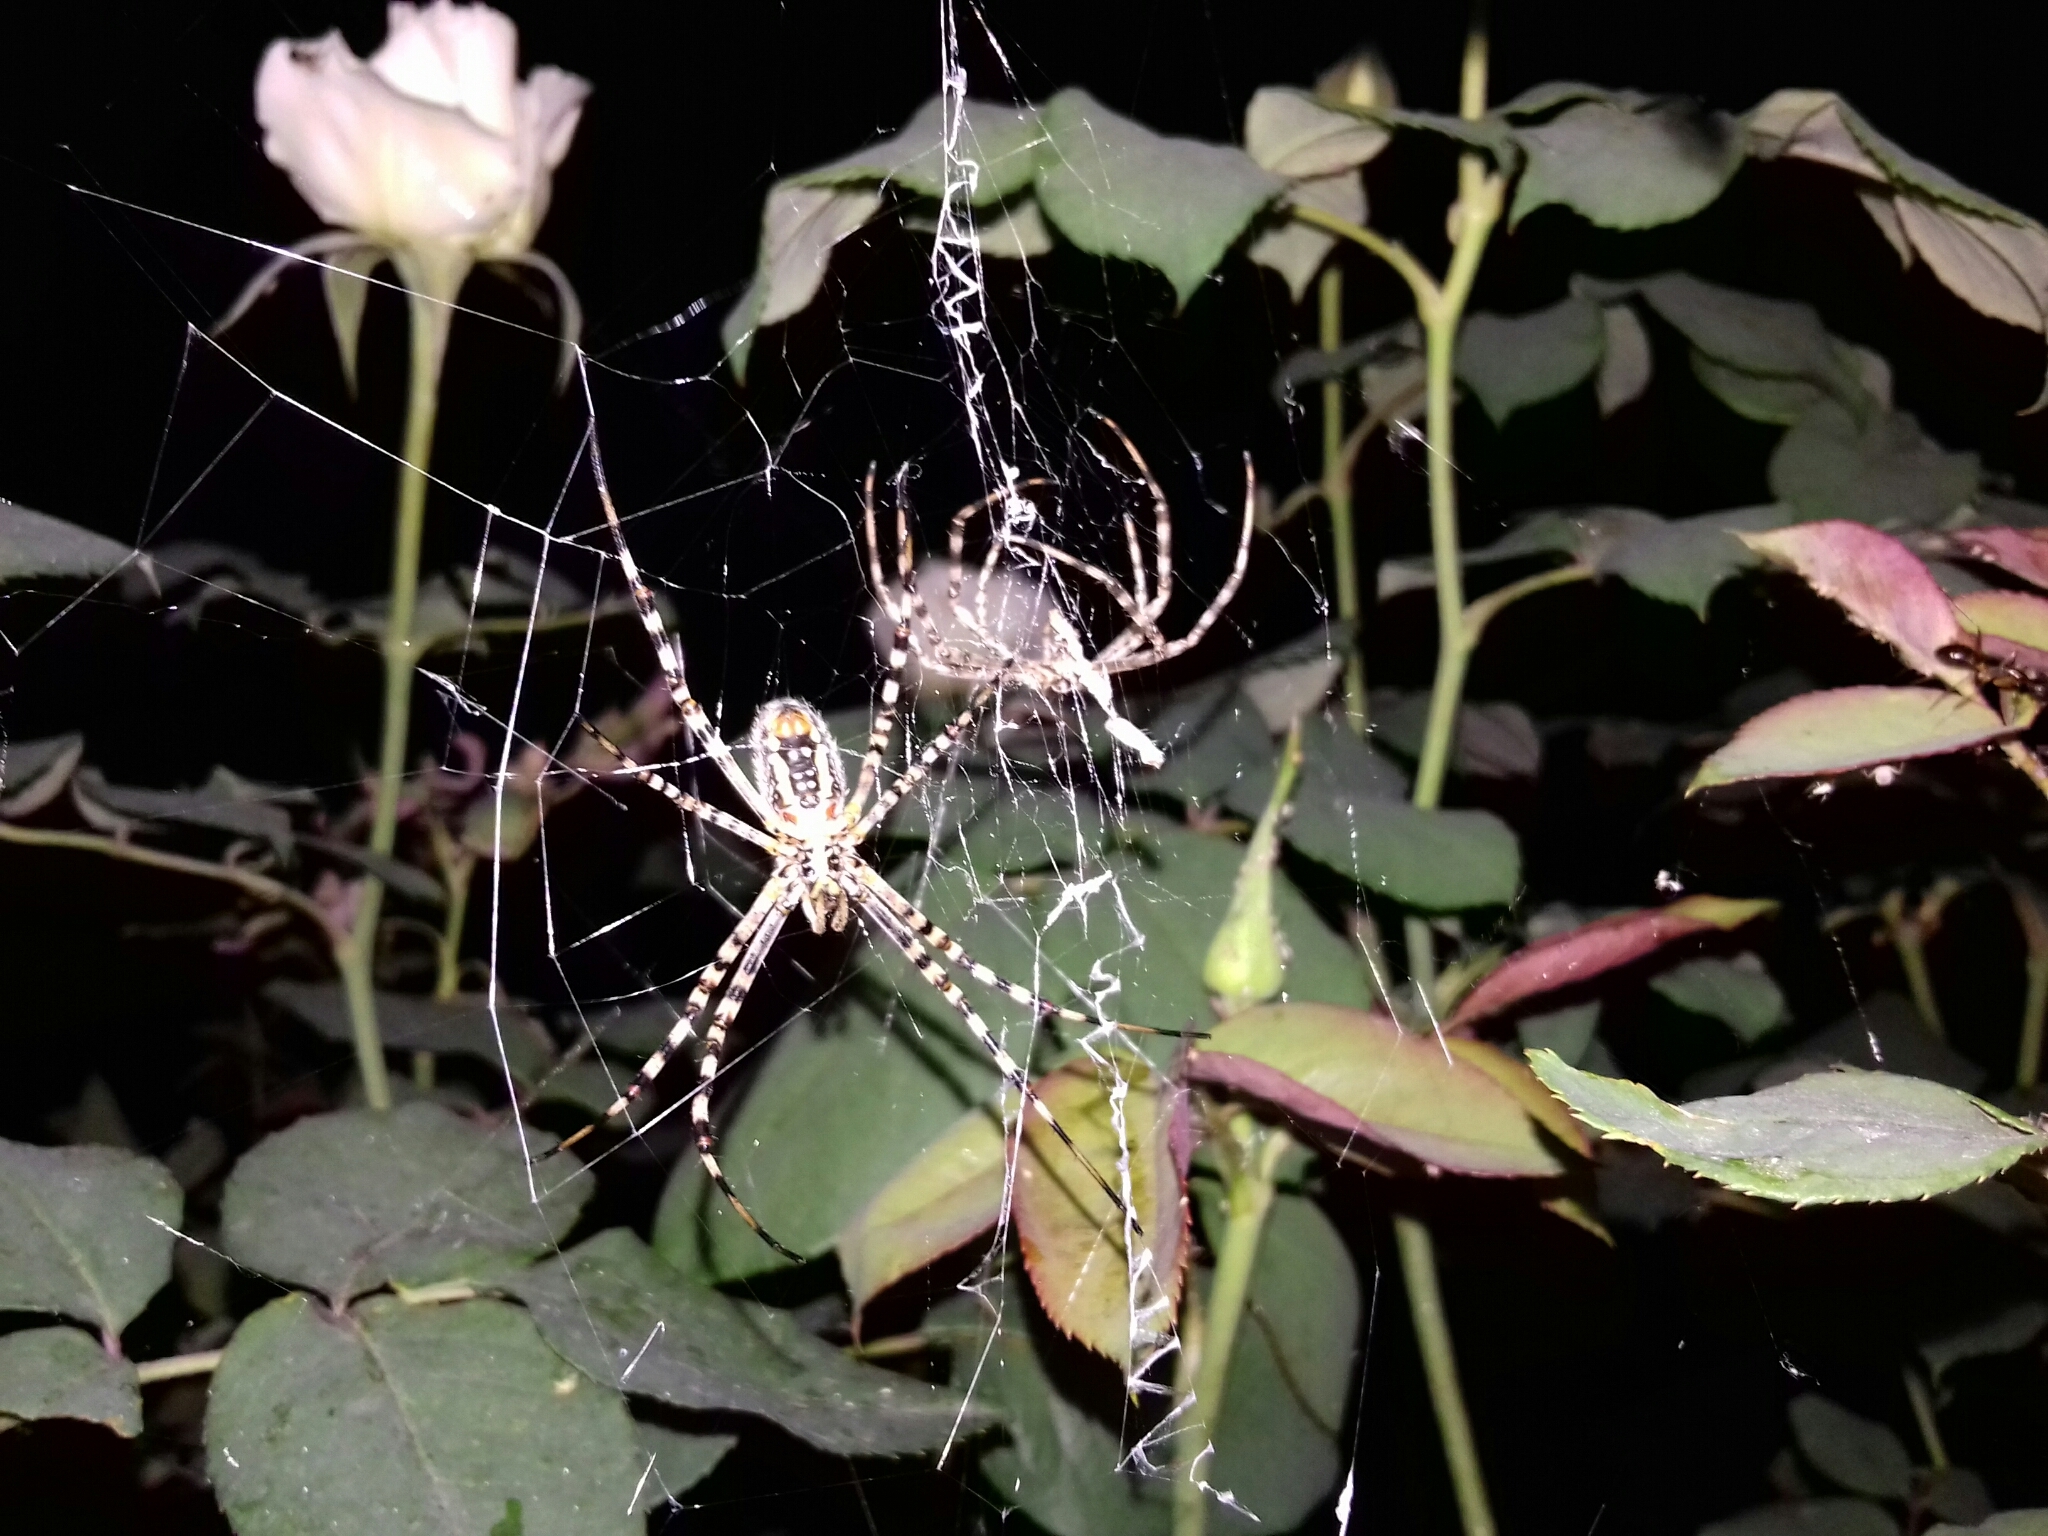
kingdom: Animalia
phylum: Arthropoda
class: Arachnida
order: Araneae
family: Araneidae
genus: Argiope
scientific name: Argiope trifasciata
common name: Banded garden spider
